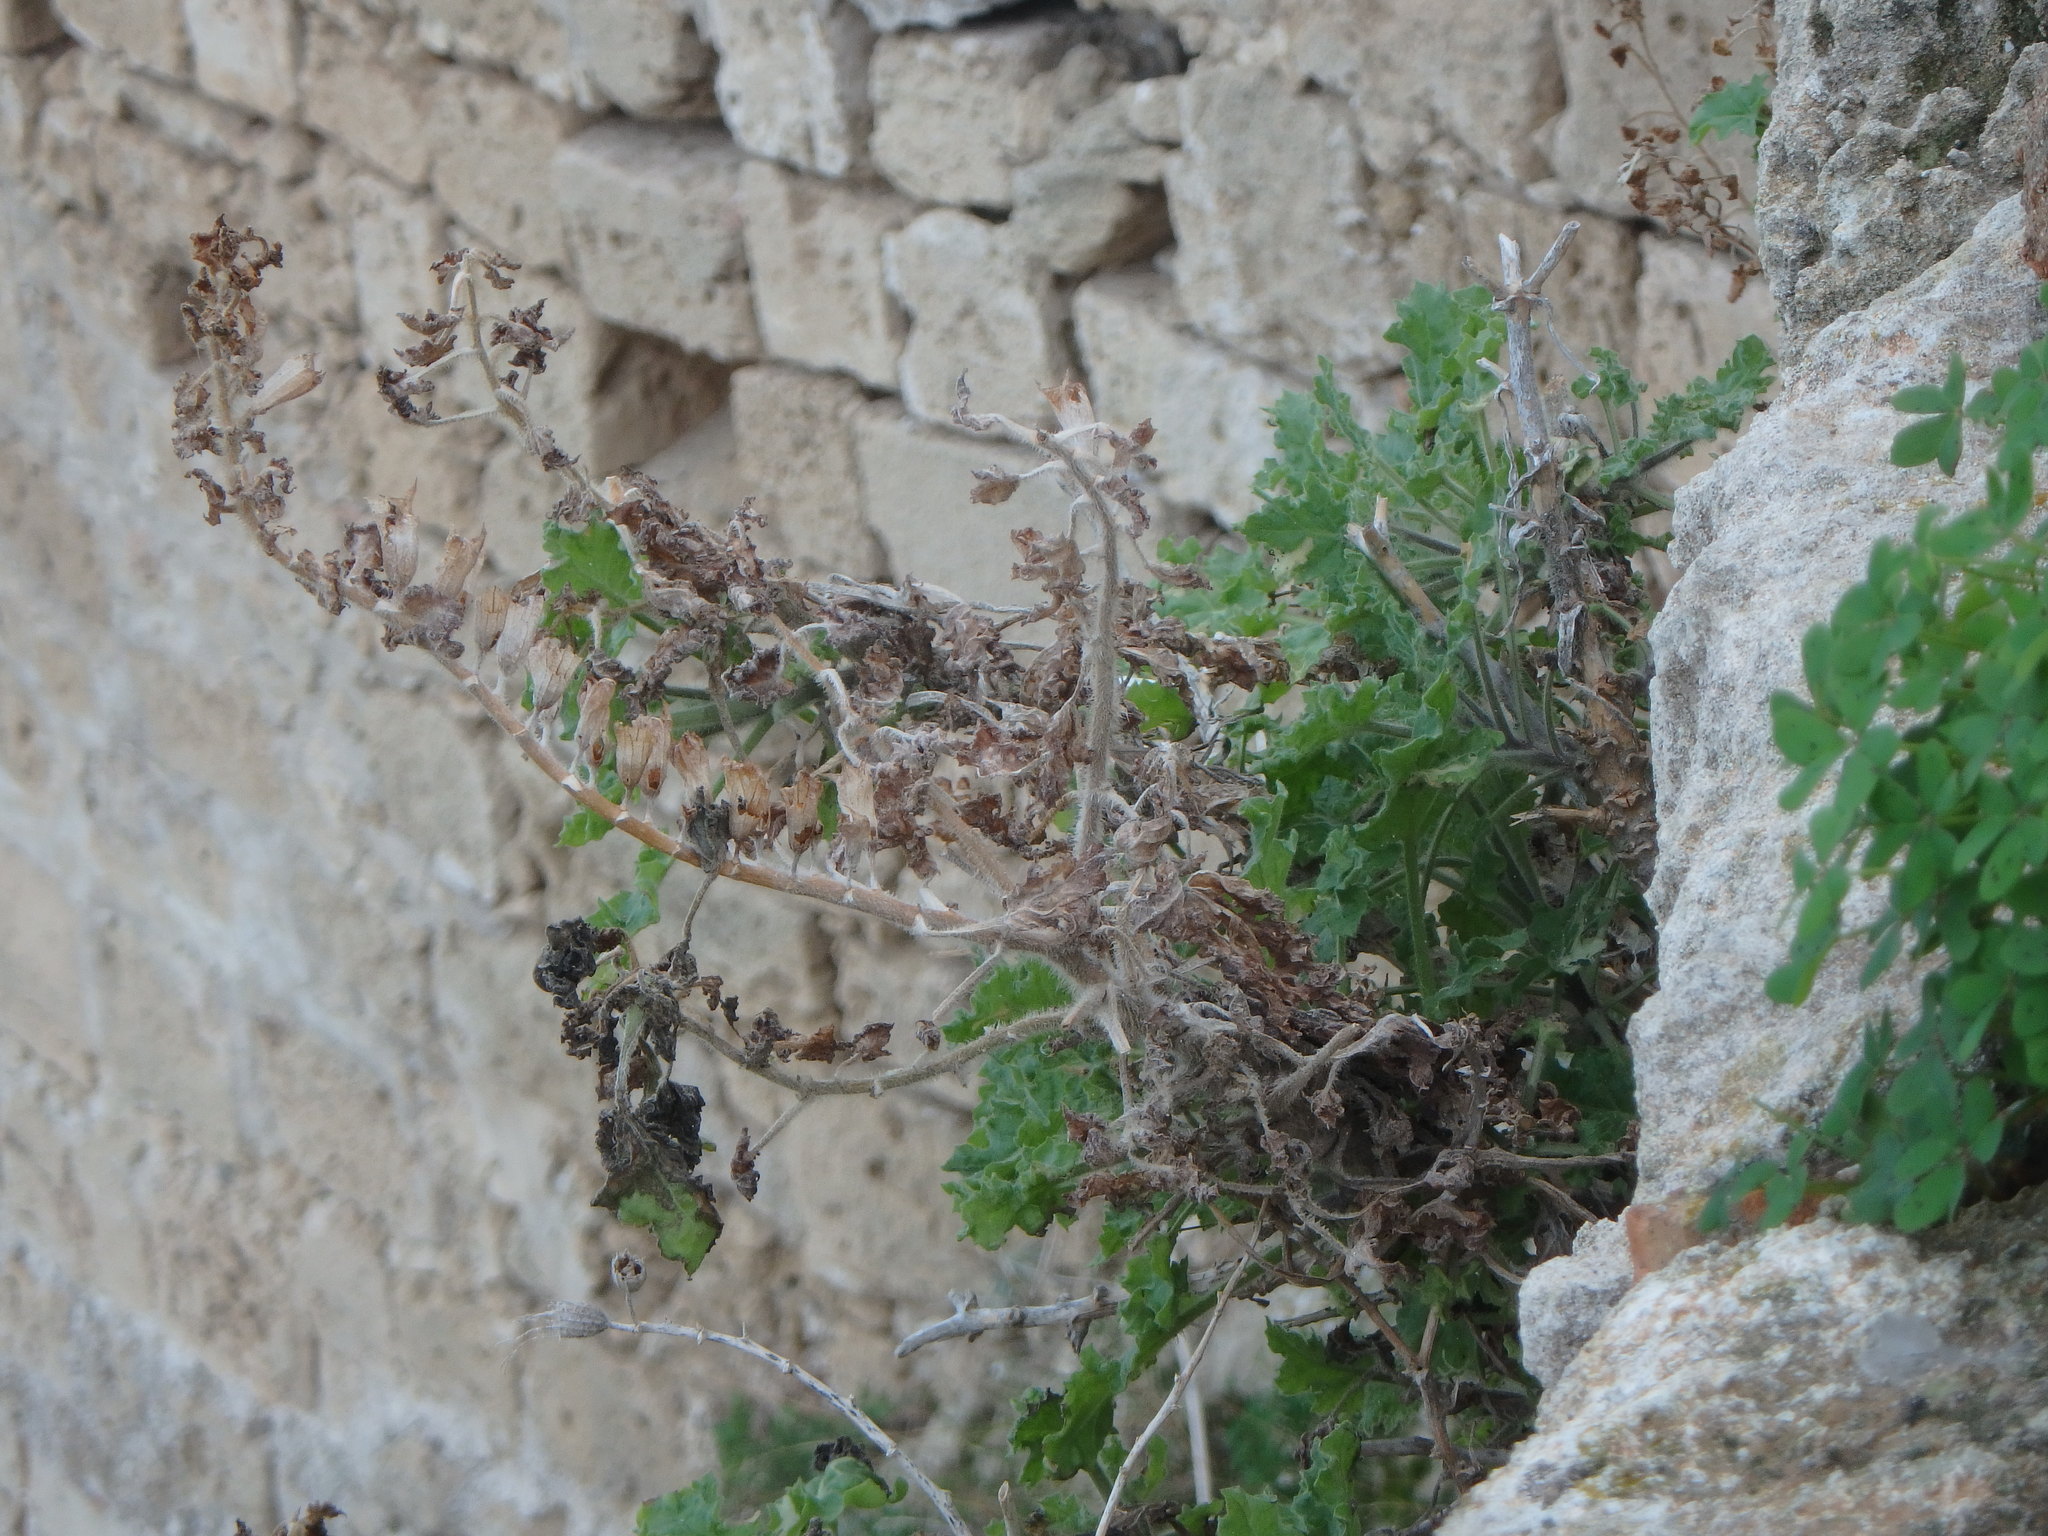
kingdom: Plantae
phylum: Tracheophyta
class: Magnoliopsida
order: Solanales
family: Solanaceae
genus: Hyoscyamus
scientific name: Hyoscyamus aureus
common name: Golden henbane
